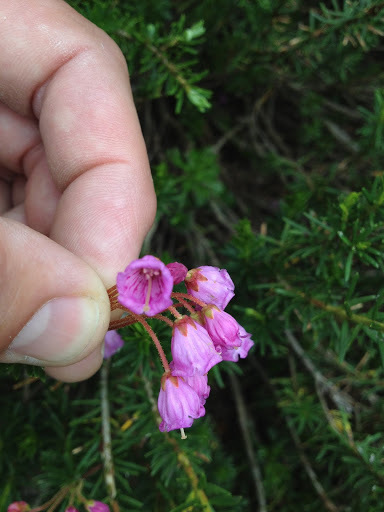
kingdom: Plantae
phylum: Tracheophyta
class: Magnoliopsida
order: Ericales
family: Ericaceae
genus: Phyllodoce
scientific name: Phyllodoce empetriformis
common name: Pink mountain heather
